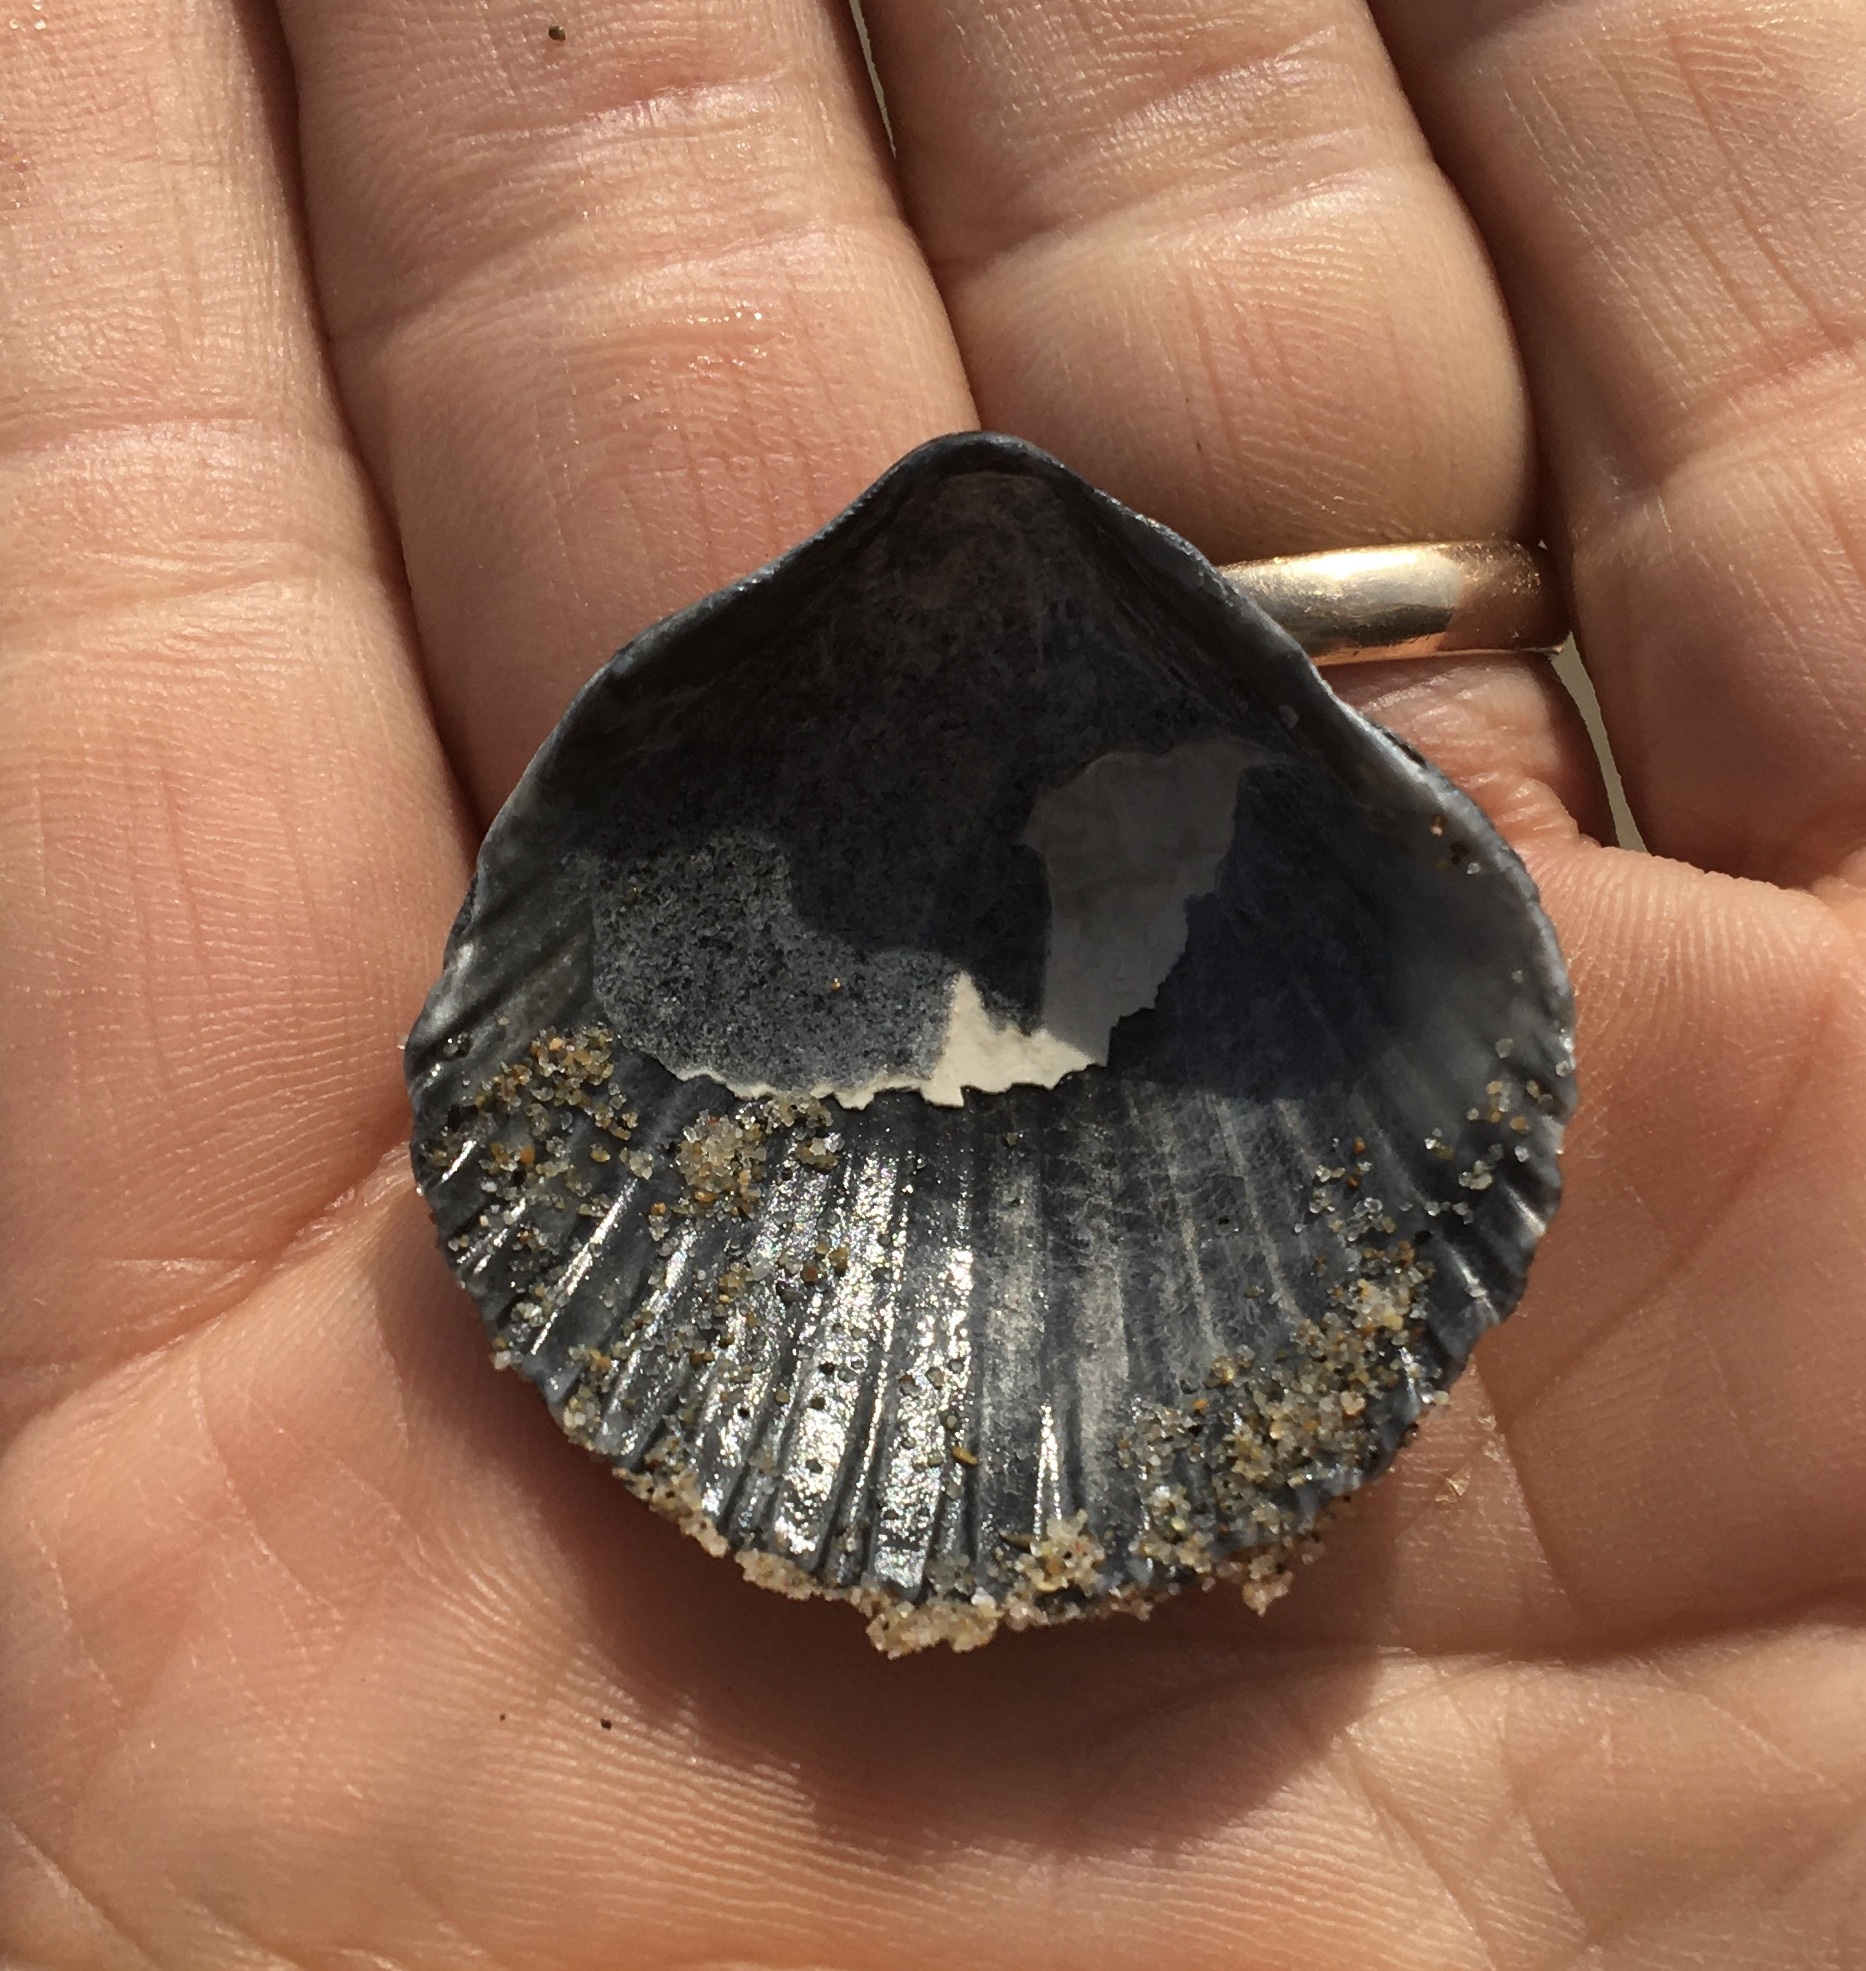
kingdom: Animalia
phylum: Mollusca
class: Bivalvia
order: Pectinida
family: Pectinidae
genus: Argopecten
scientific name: Argopecten ventricosus
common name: Catarina scallop
